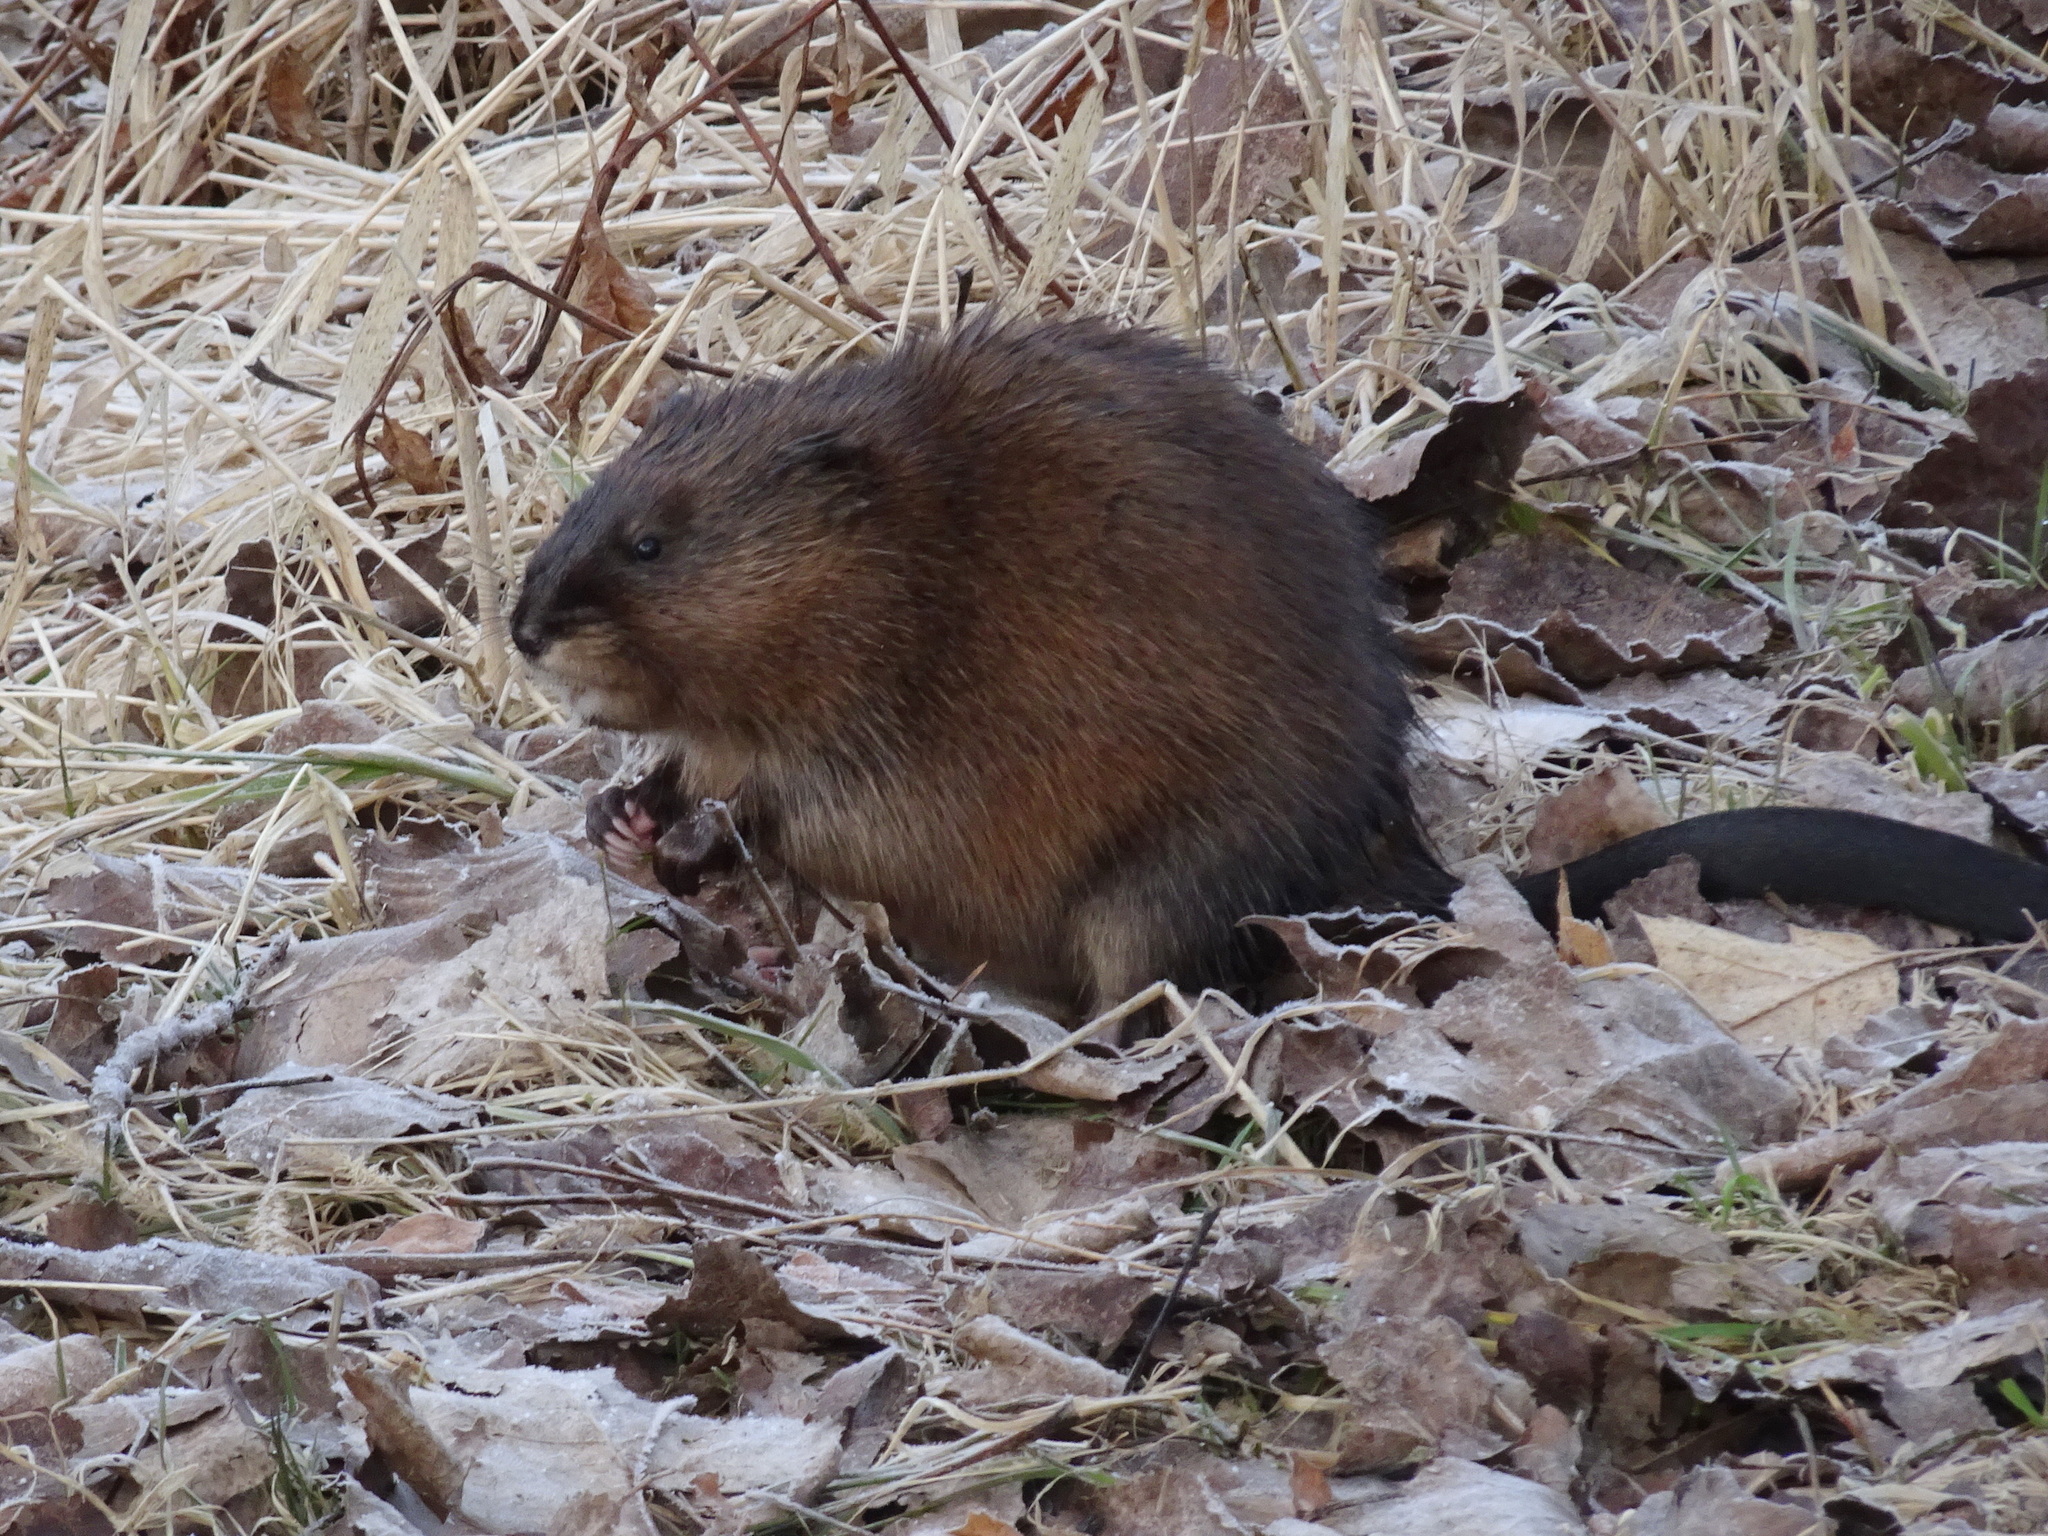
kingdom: Animalia
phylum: Chordata
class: Mammalia
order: Rodentia
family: Cricetidae
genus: Ondatra
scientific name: Ondatra zibethicus
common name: Muskrat
